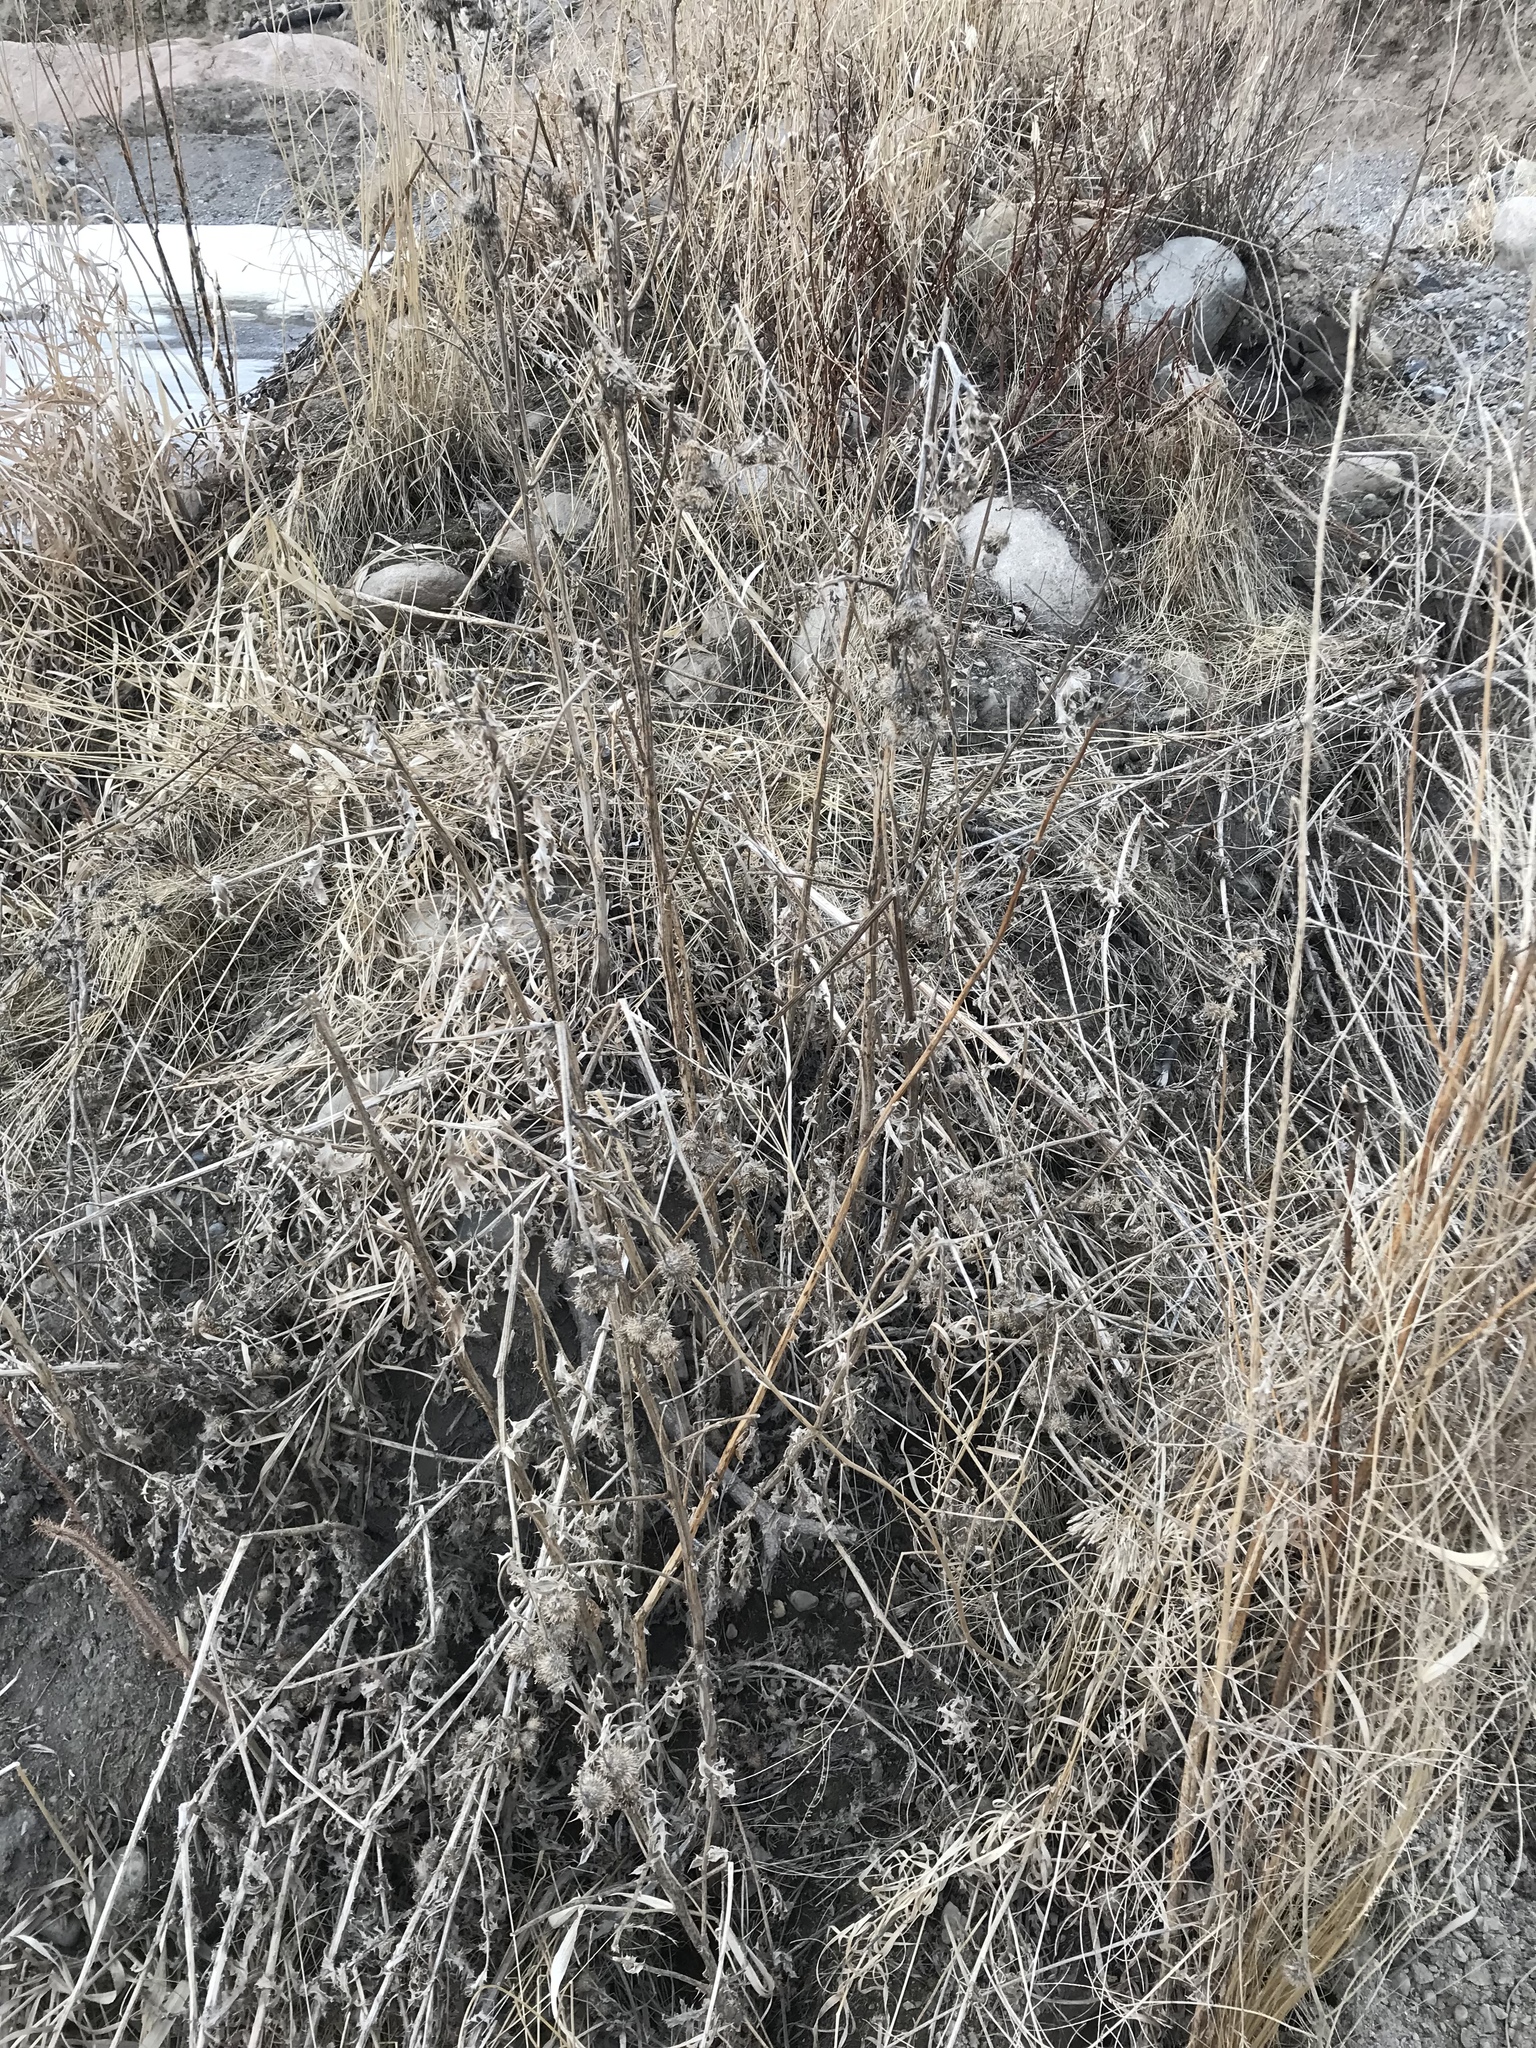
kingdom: Plantae
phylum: Tracheophyta
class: Magnoliopsida
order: Asterales
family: Asteraceae
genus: Cirsium
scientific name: Cirsium arvense
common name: Creeping thistle
